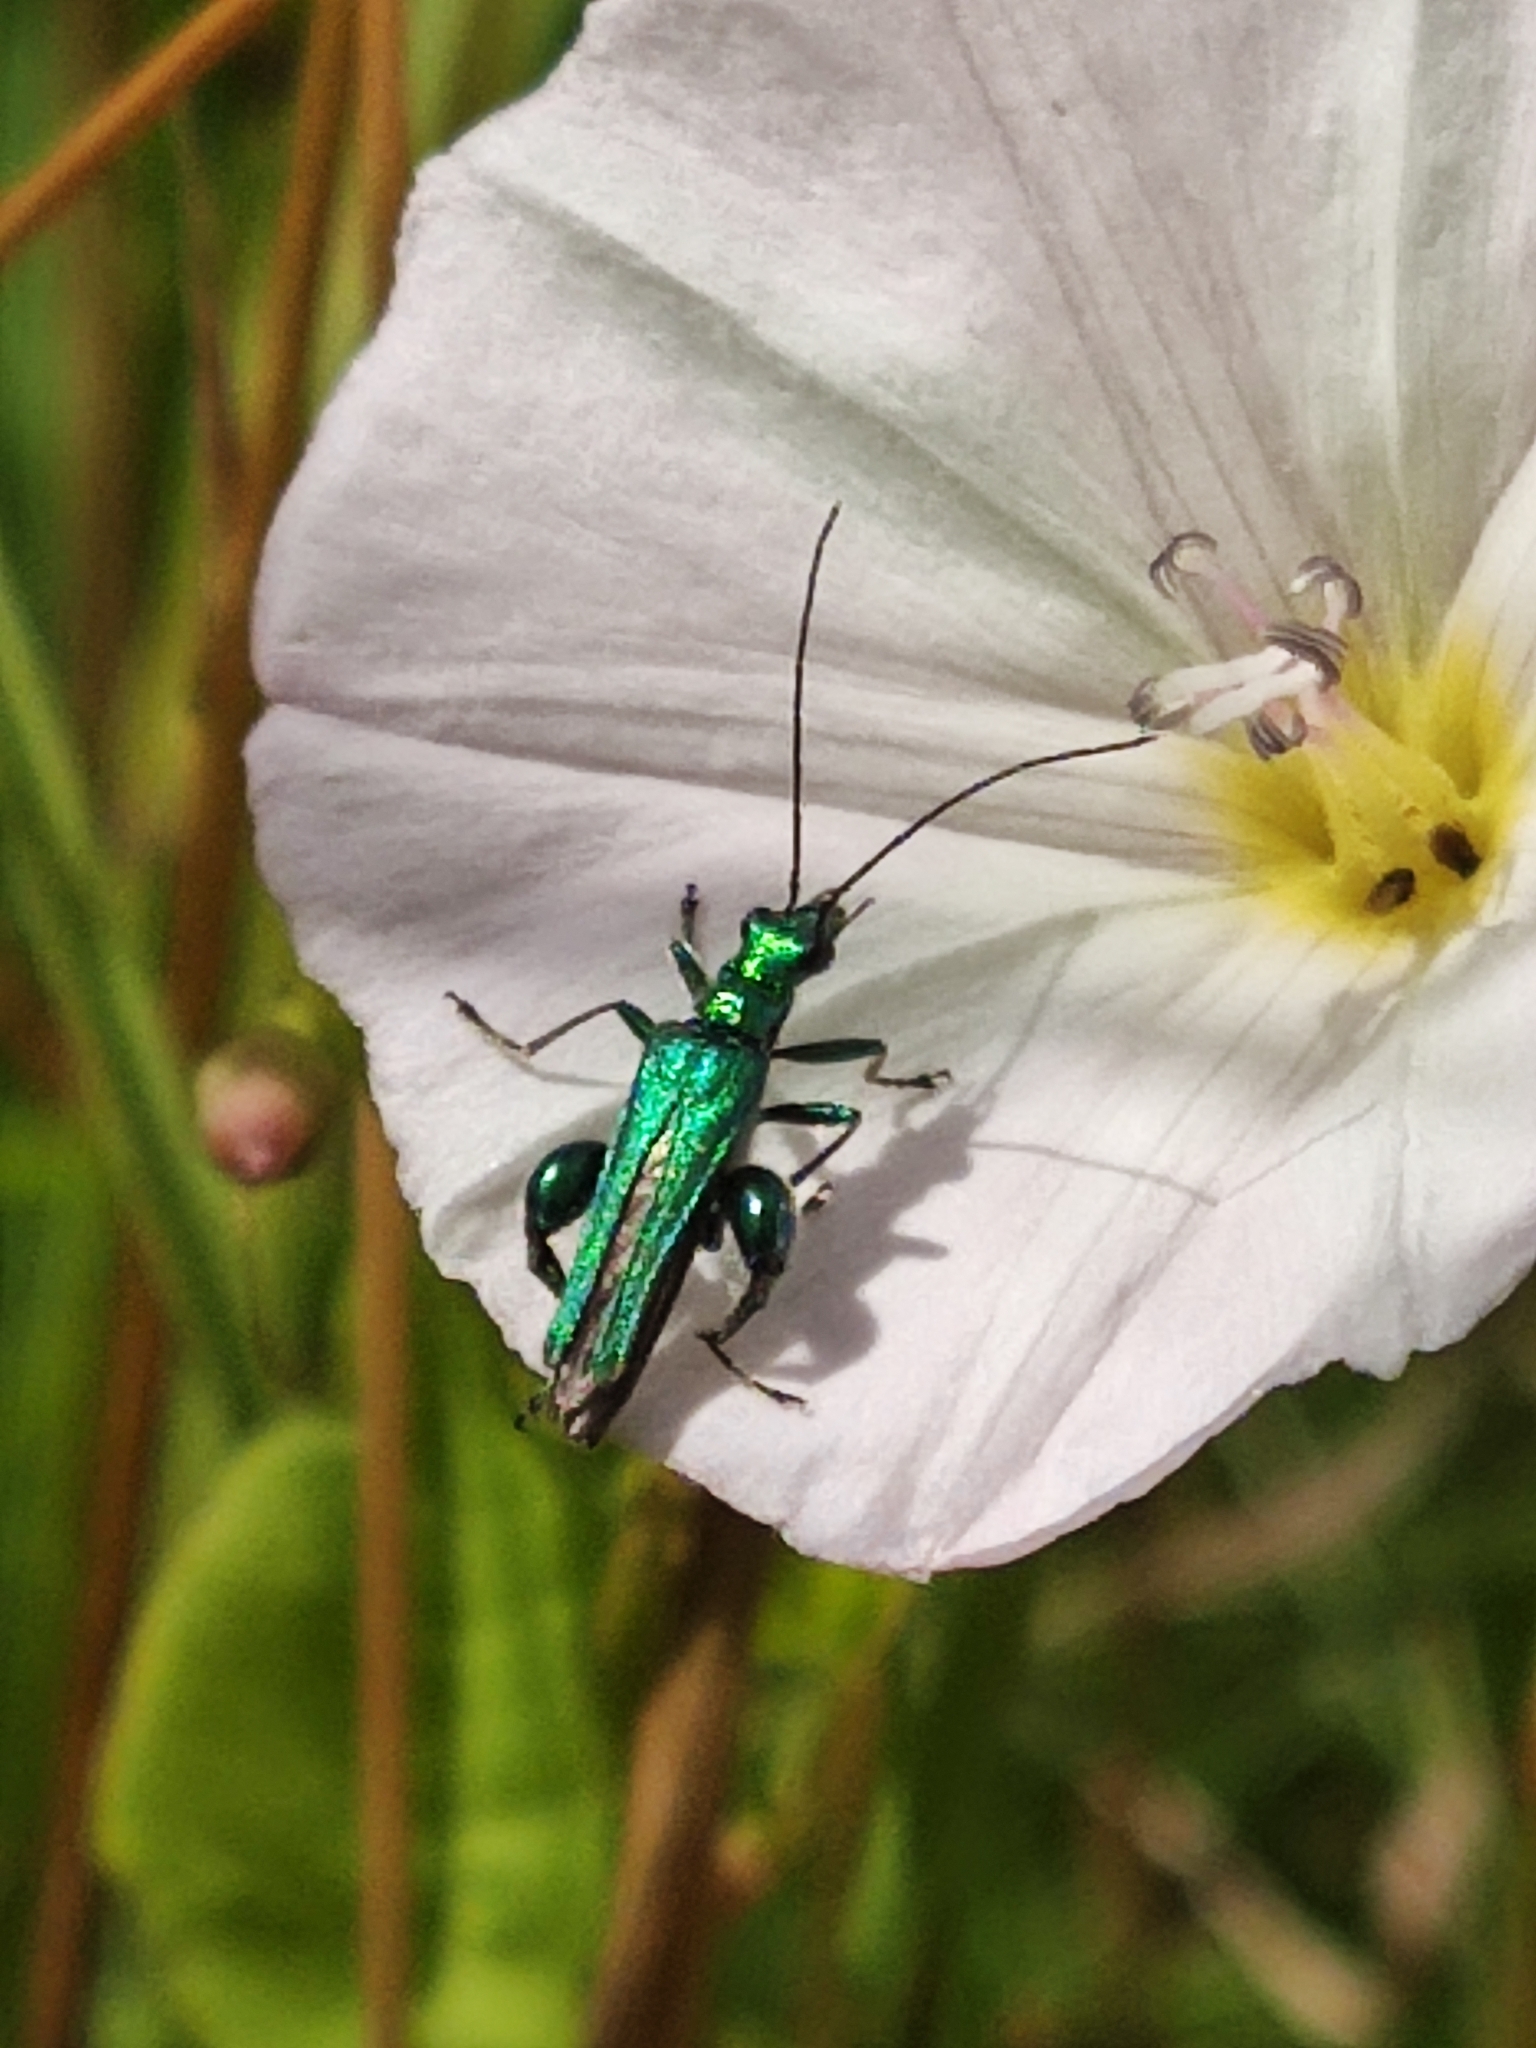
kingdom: Animalia
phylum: Arthropoda
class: Insecta
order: Coleoptera
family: Oedemeridae
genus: Oedemera
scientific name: Oedemera nobilis
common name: Swollen-thighed beetle
